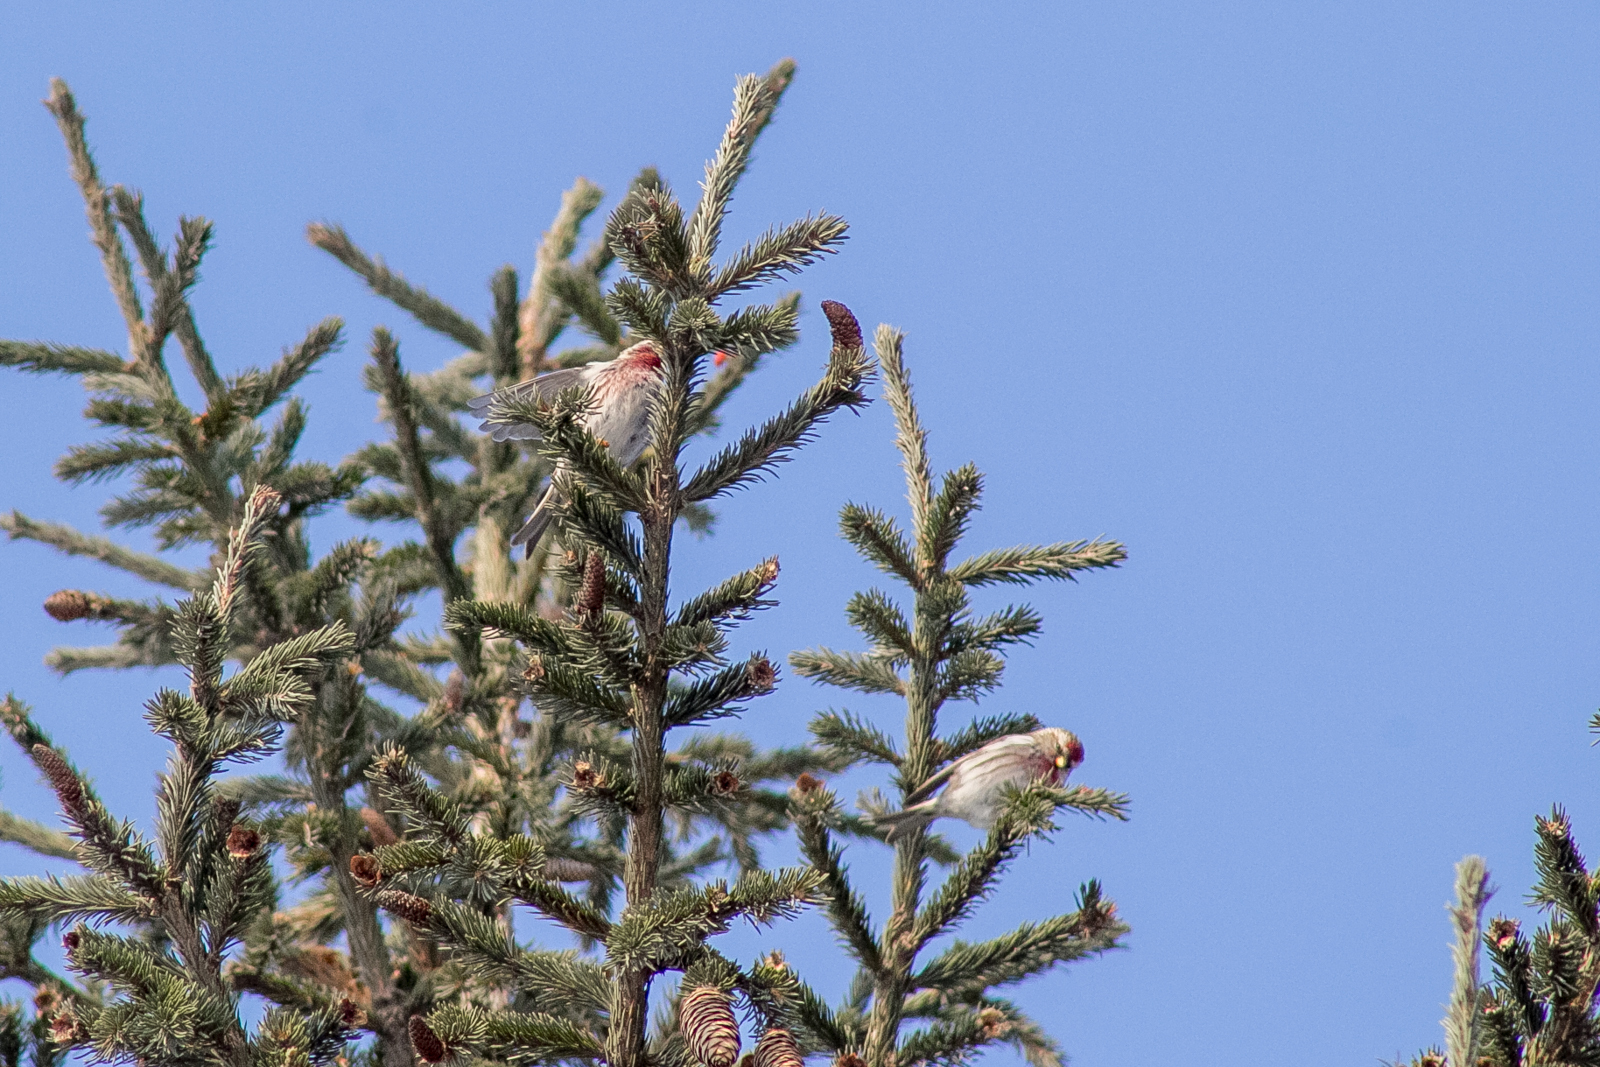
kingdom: Animalia
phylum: Chordata
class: Aves
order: Passeriformes
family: Fringillidae
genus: Acanthis
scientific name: Acanthis flammea
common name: Common redpoll
